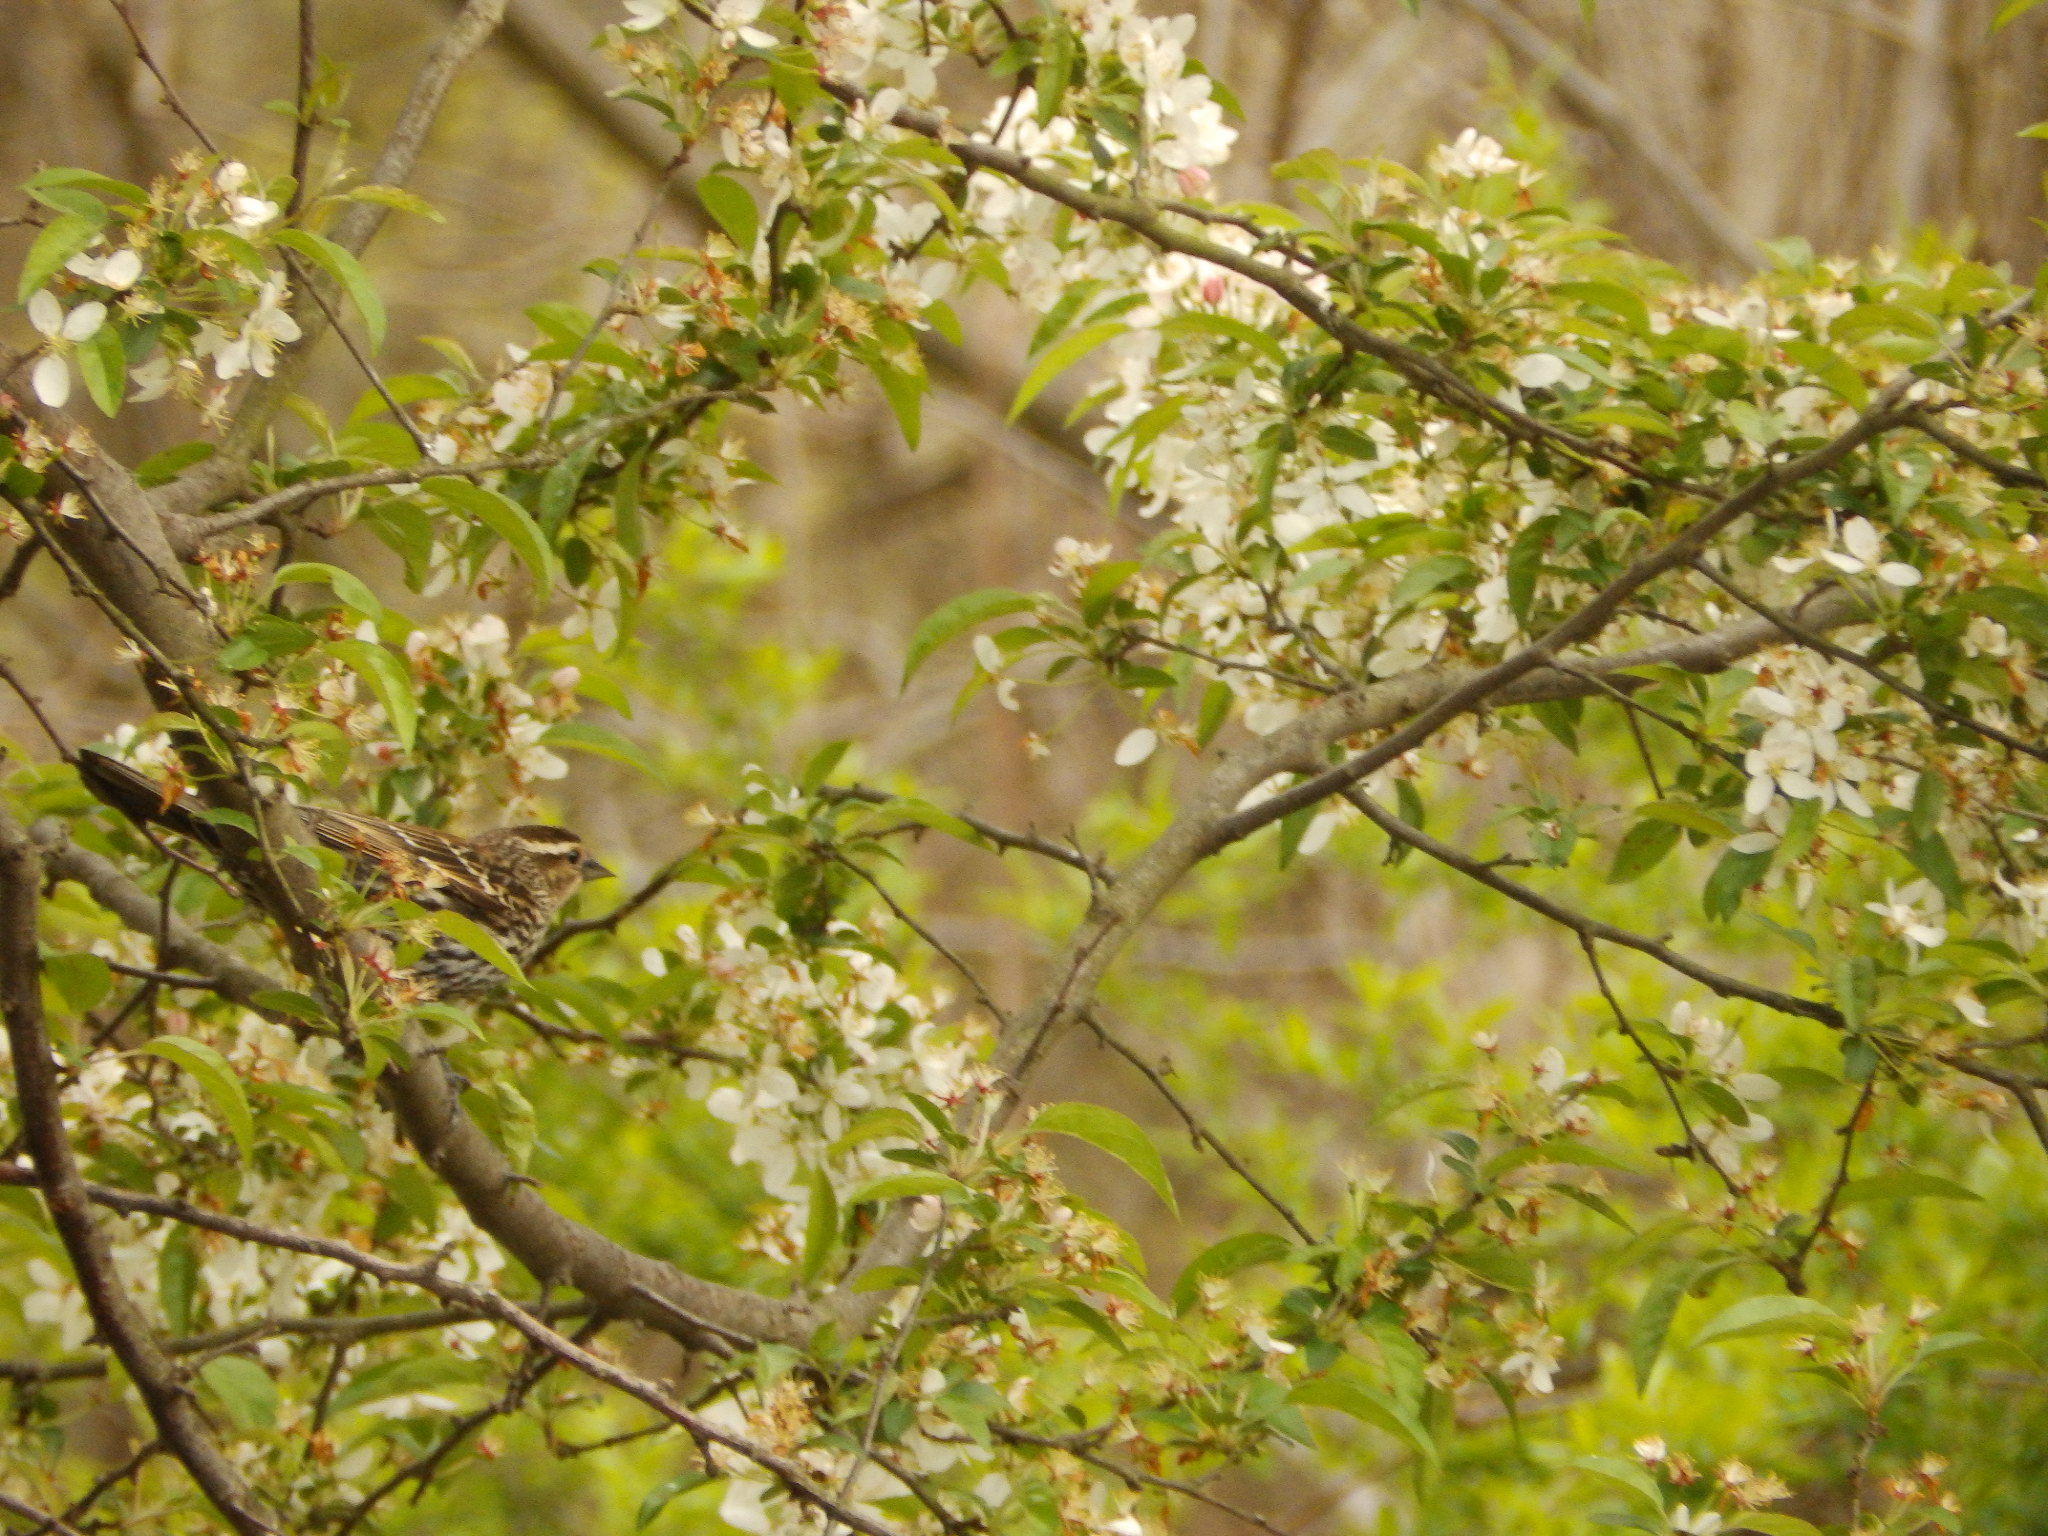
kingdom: Animalia
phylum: Chordata
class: Aves
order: Passeriformes
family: Icteridae
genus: Agelaius
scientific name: Agelaius phoeniceus
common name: Red-winged blackbird
